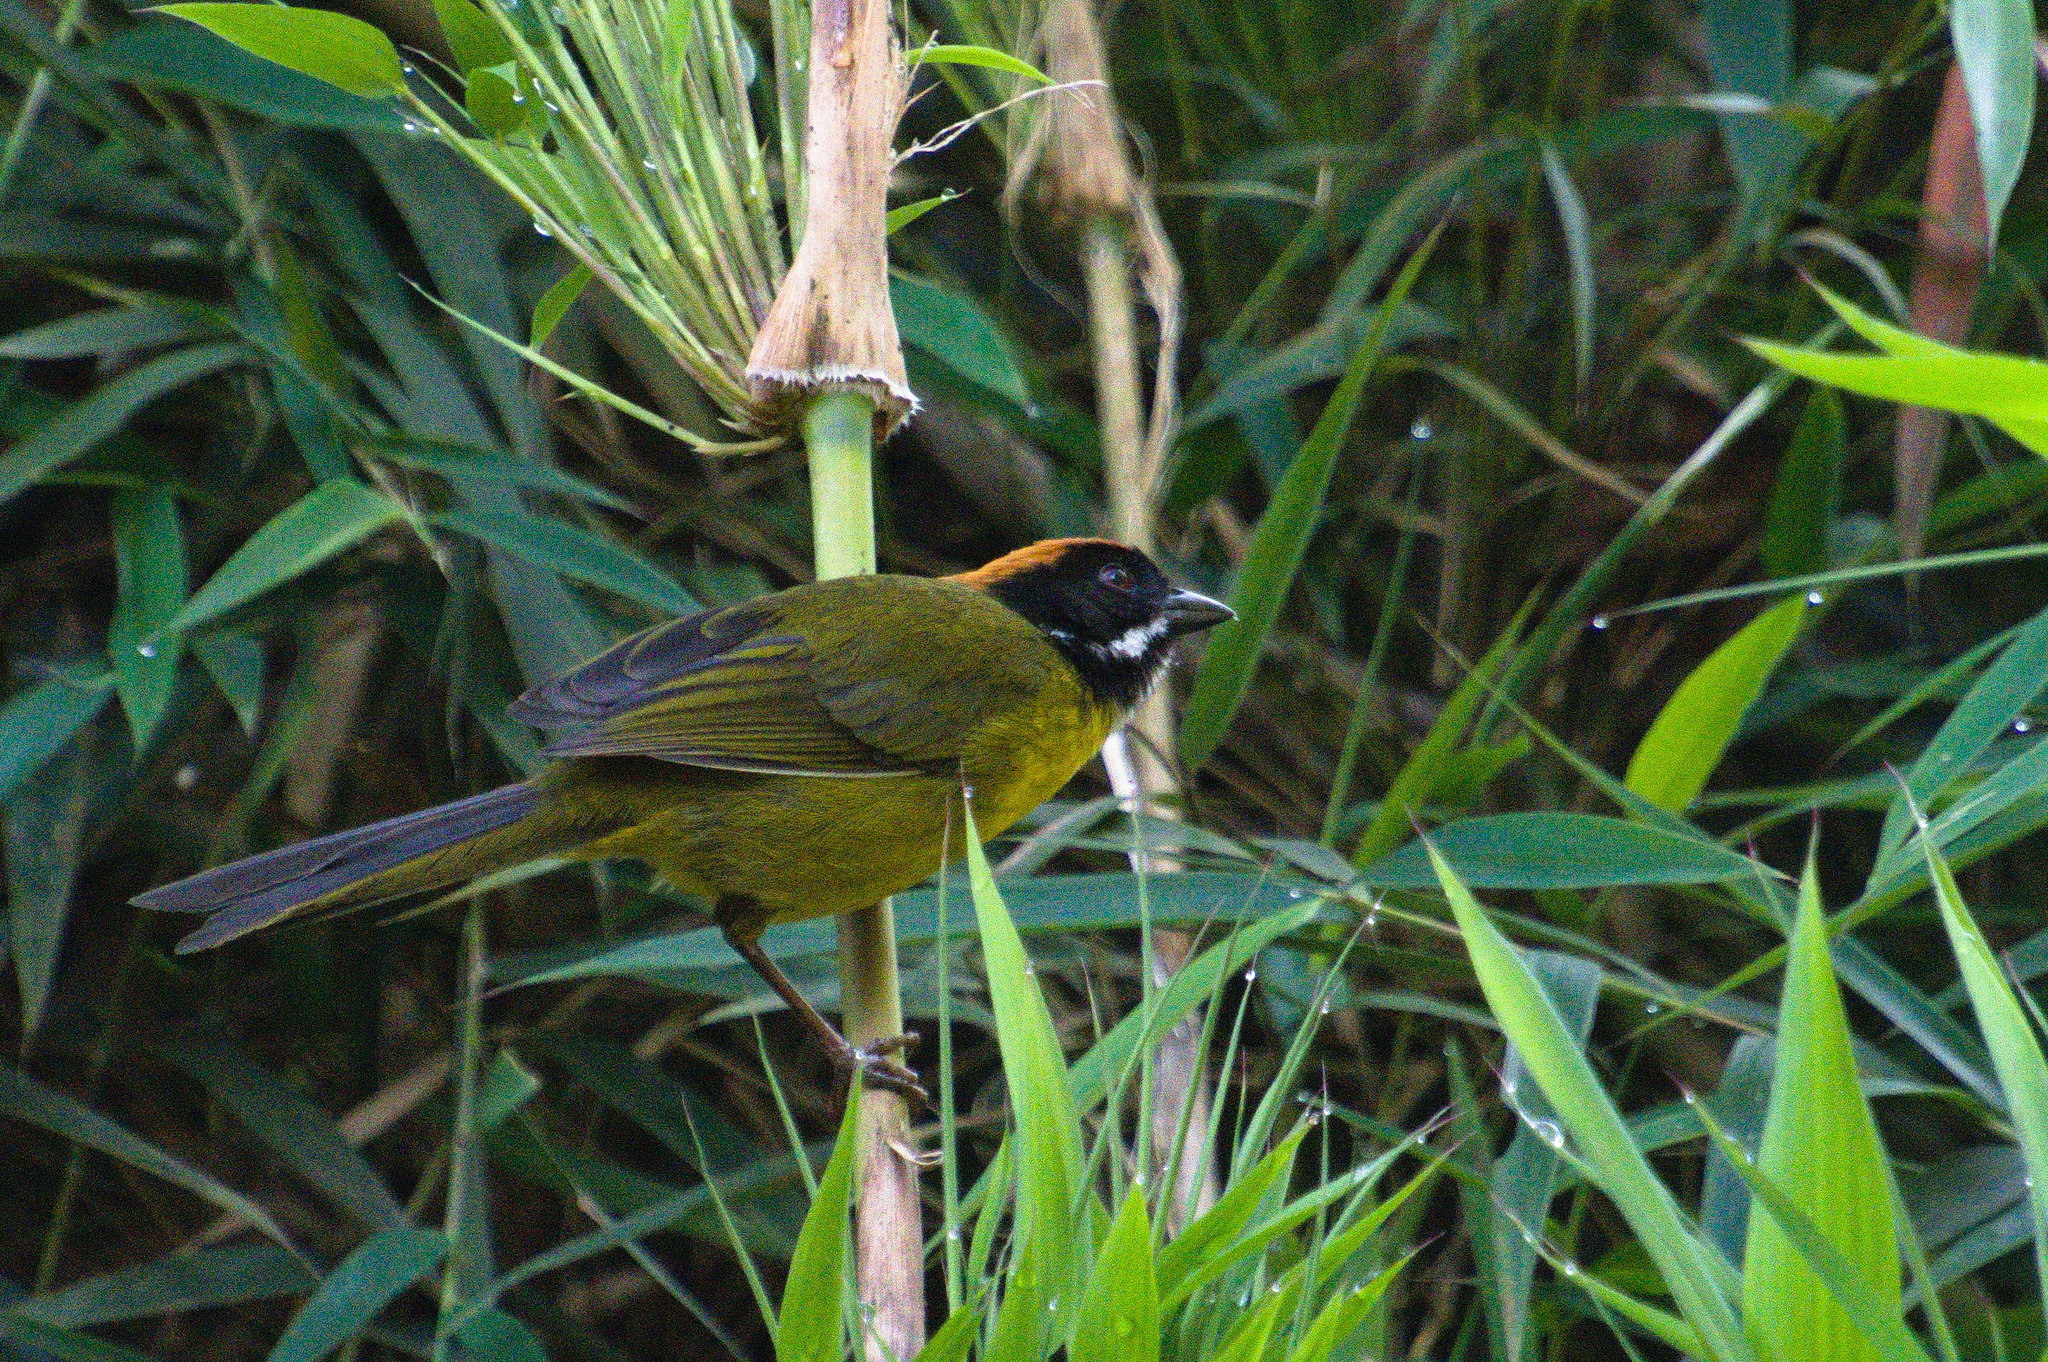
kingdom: Animalia
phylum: Chordata
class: Aves
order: Passeriformes
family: Passerellidae
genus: Atlapetes
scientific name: Atlapetes albofrenatus
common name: Moustached brushfinch
